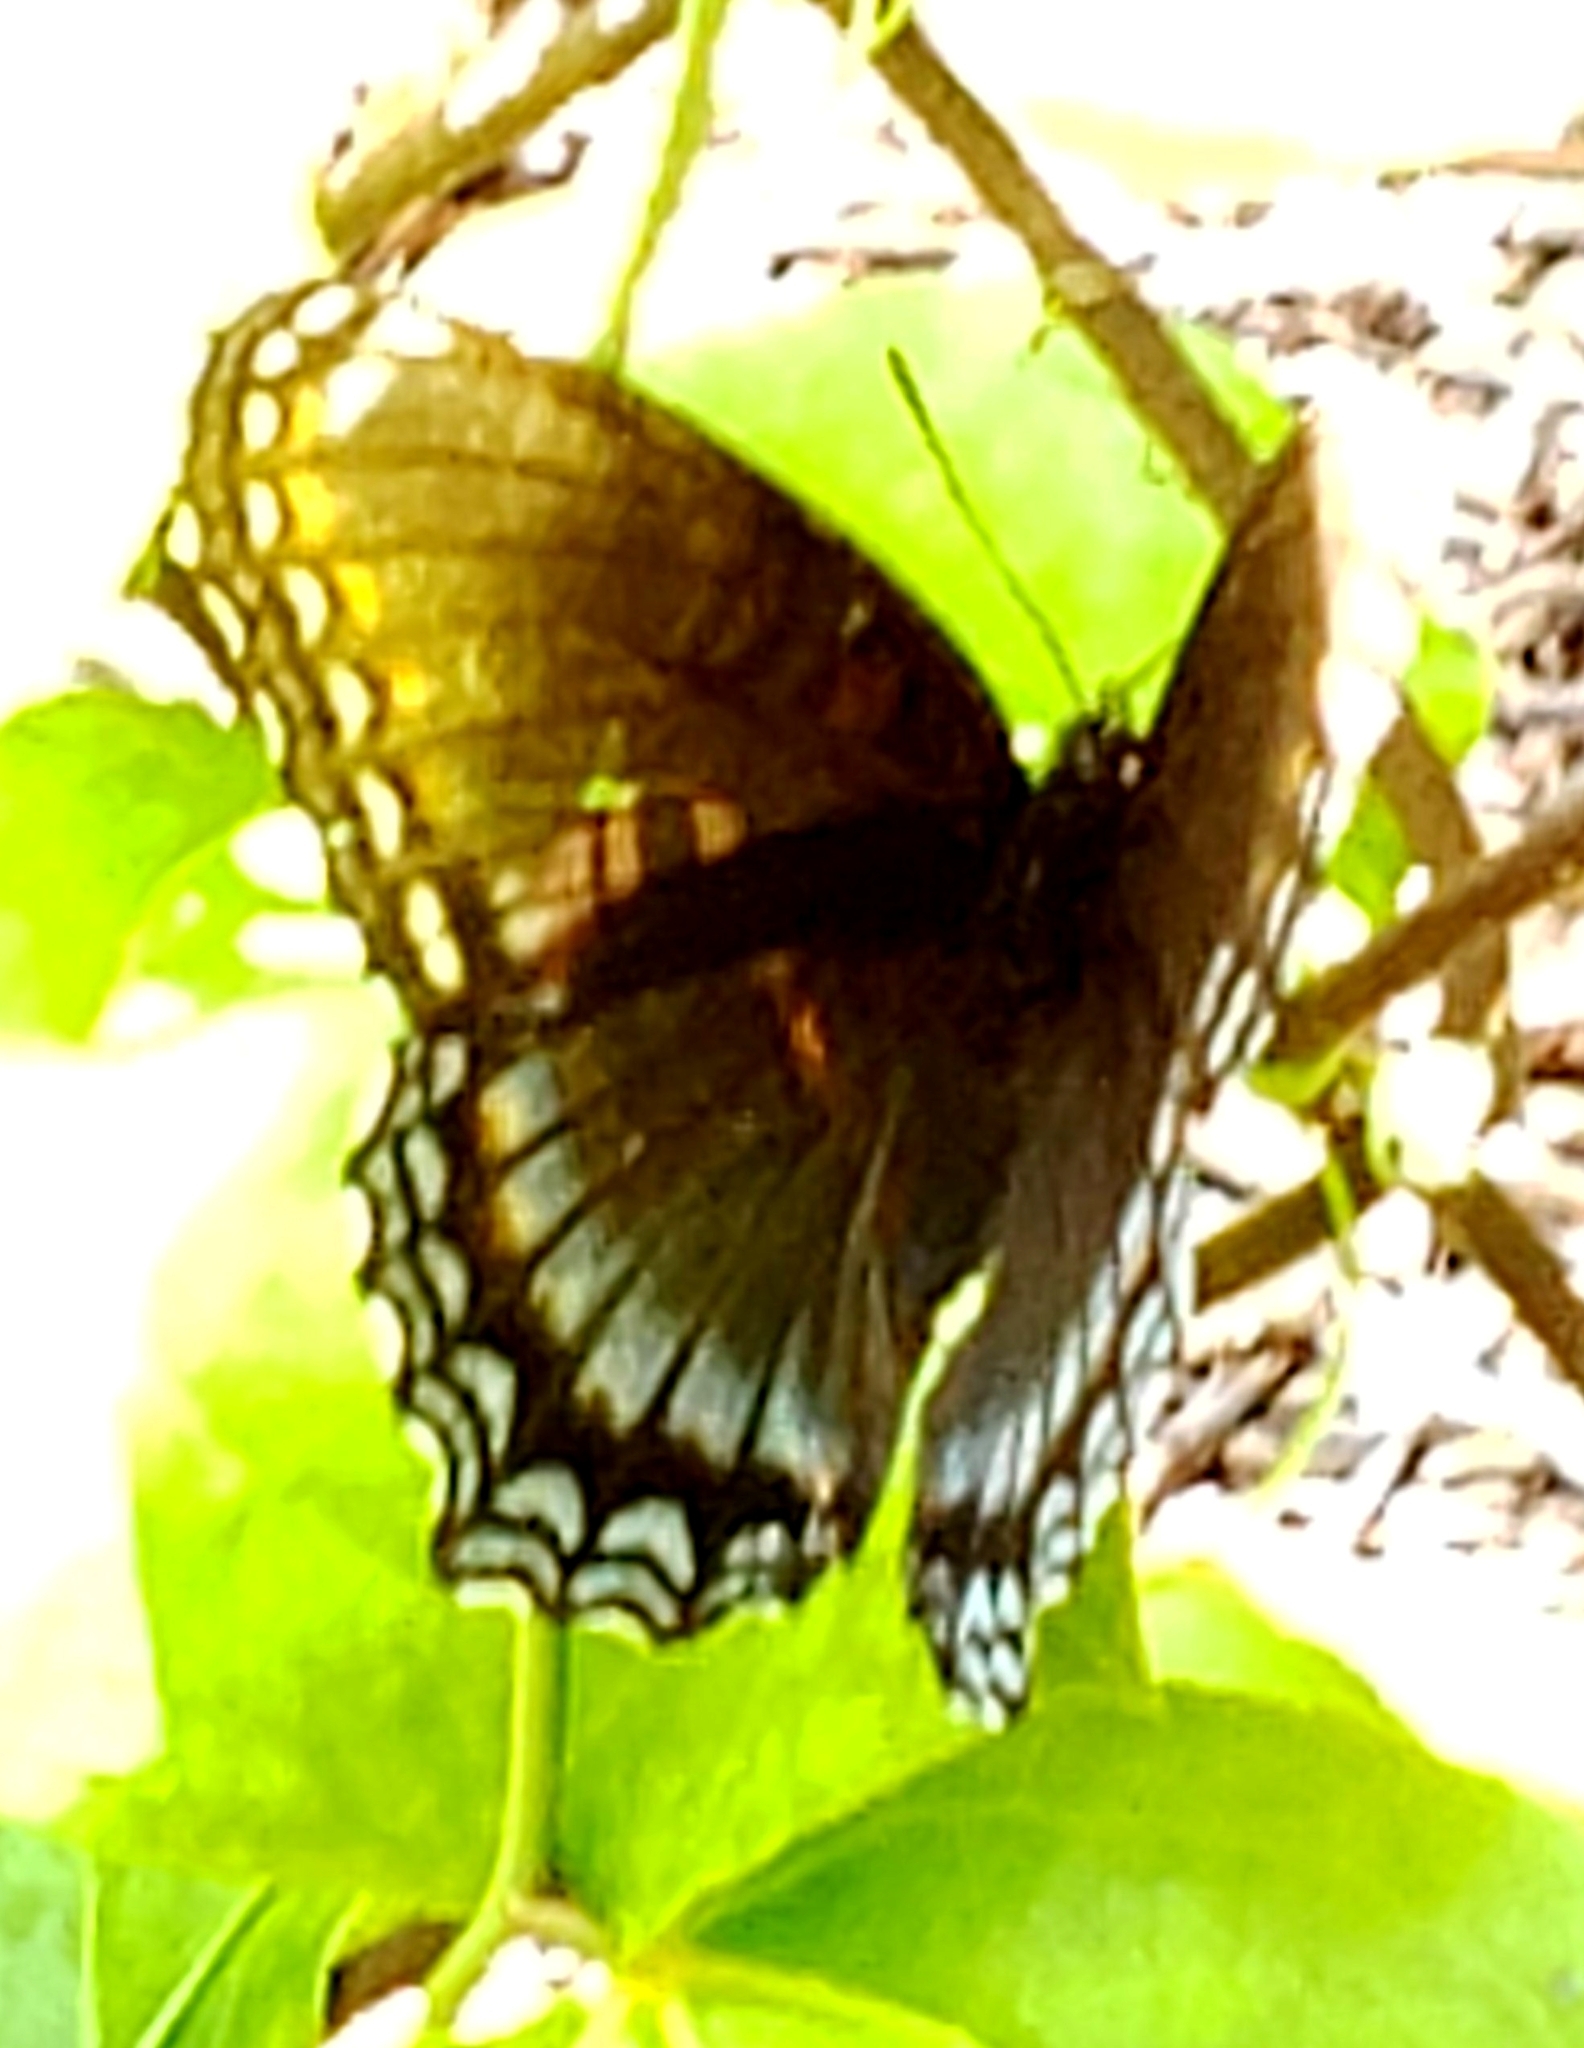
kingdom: Animalia
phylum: Arthropoda
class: Insecta
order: Lepidoptera
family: Nymphalidae
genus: Limenitis
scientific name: Limenitis astyanax
